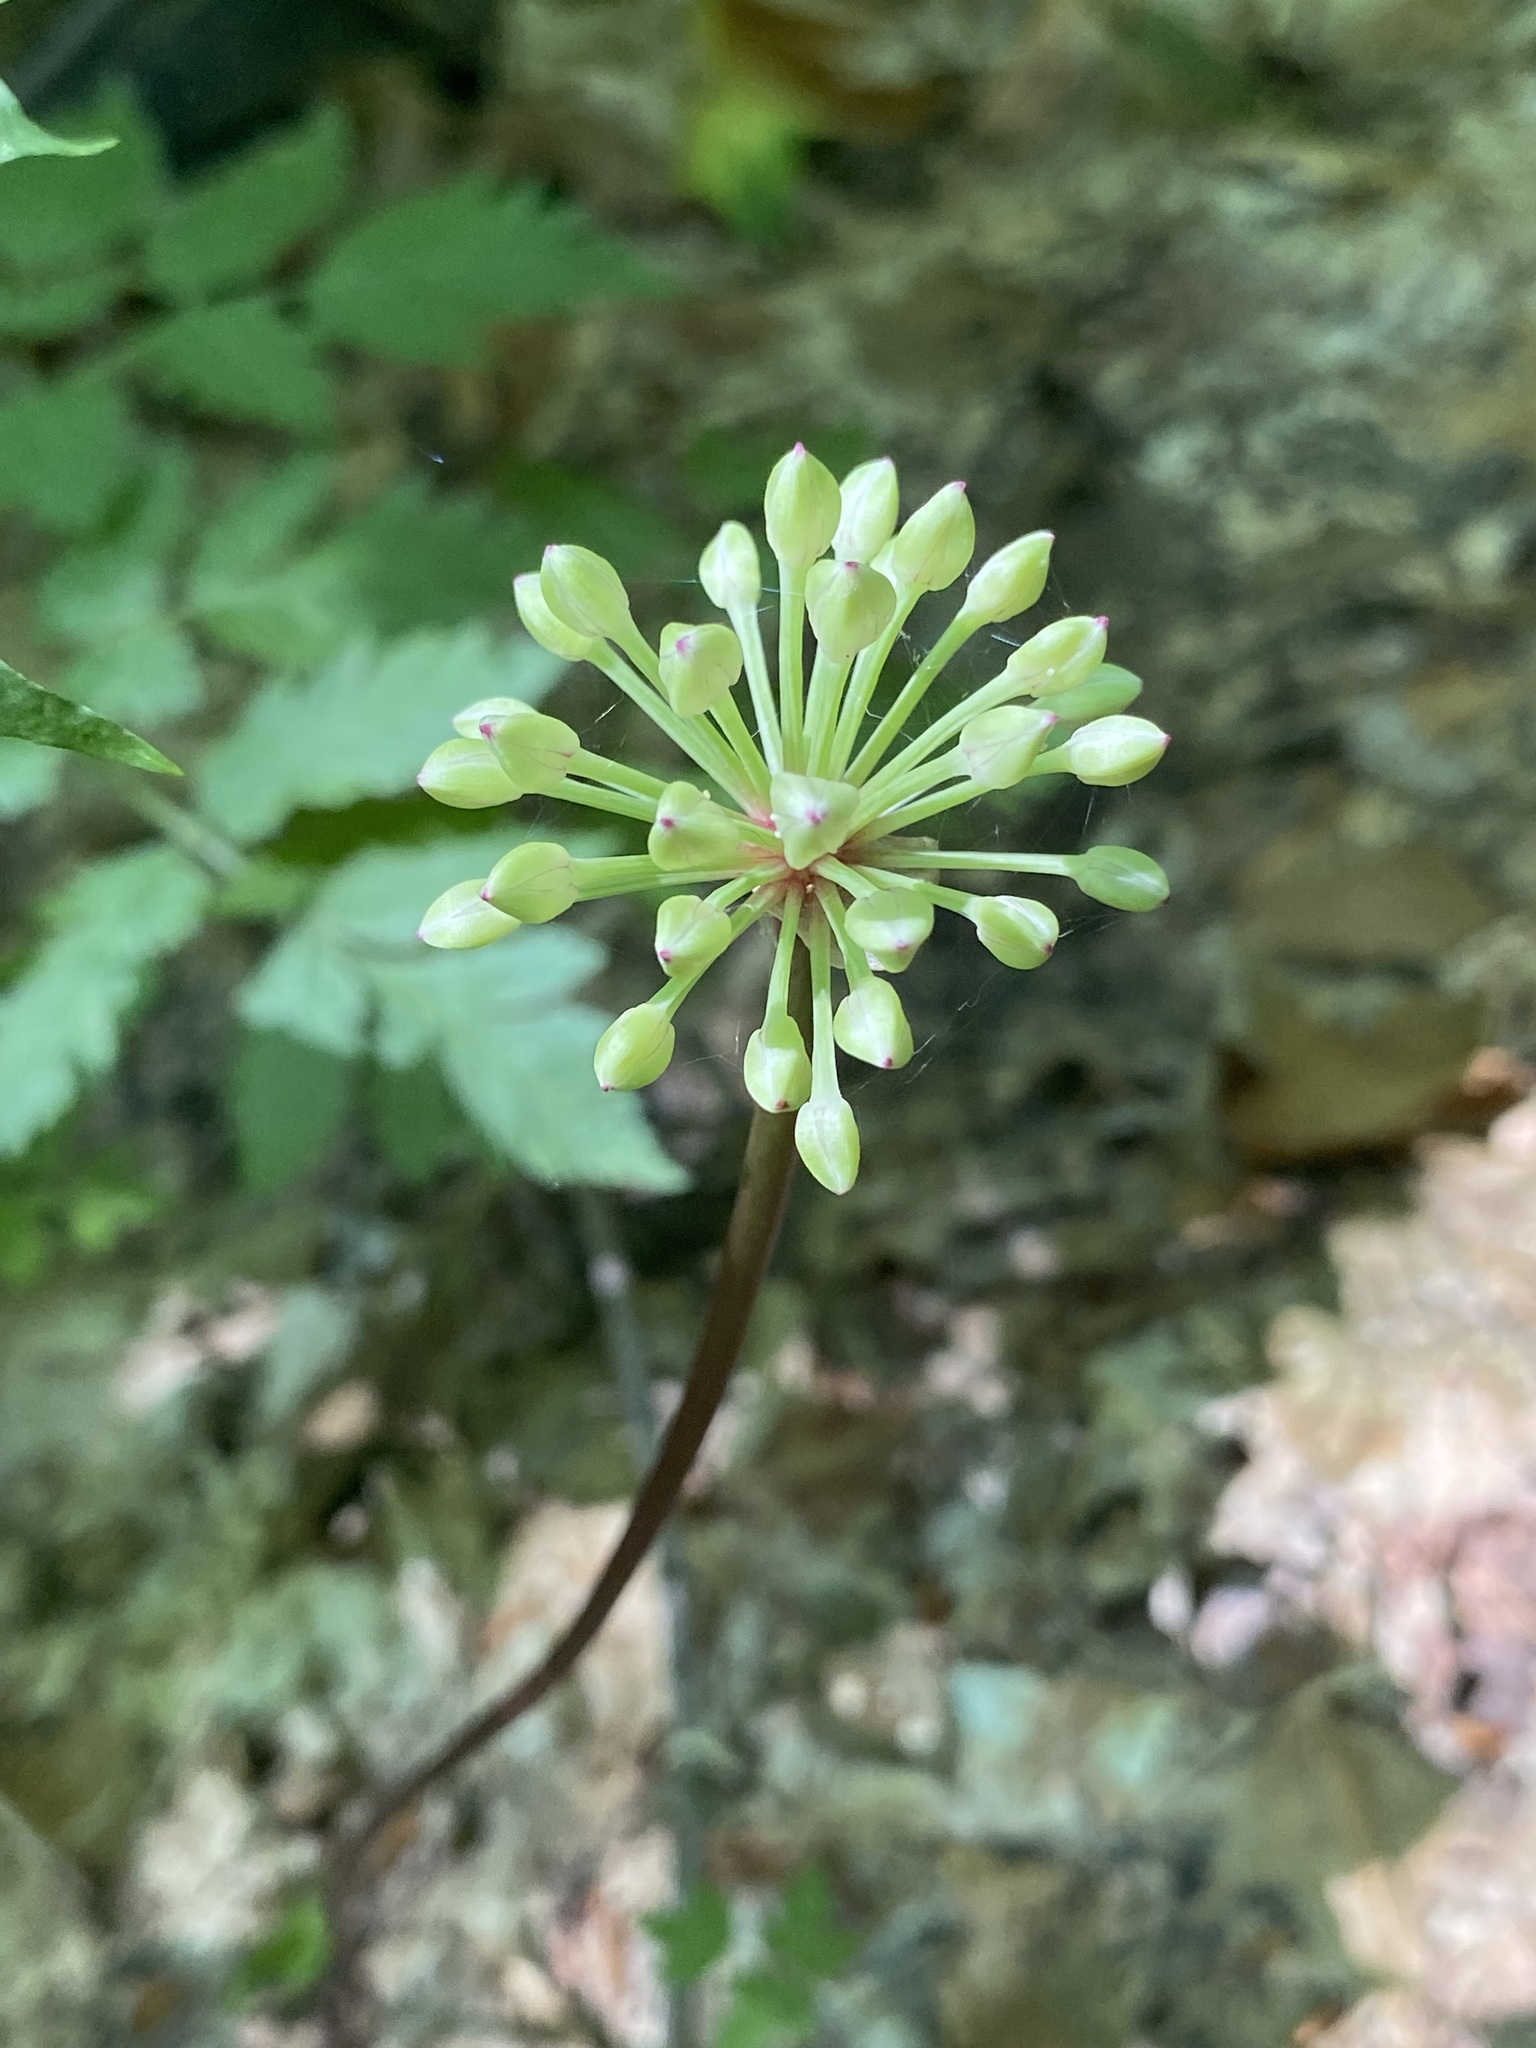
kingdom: Plantae
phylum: Tracheophyta
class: Liliopsida
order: Asparagales
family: Amaryllidaceae
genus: Allium
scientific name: Allium tricoccum
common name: Ramp
